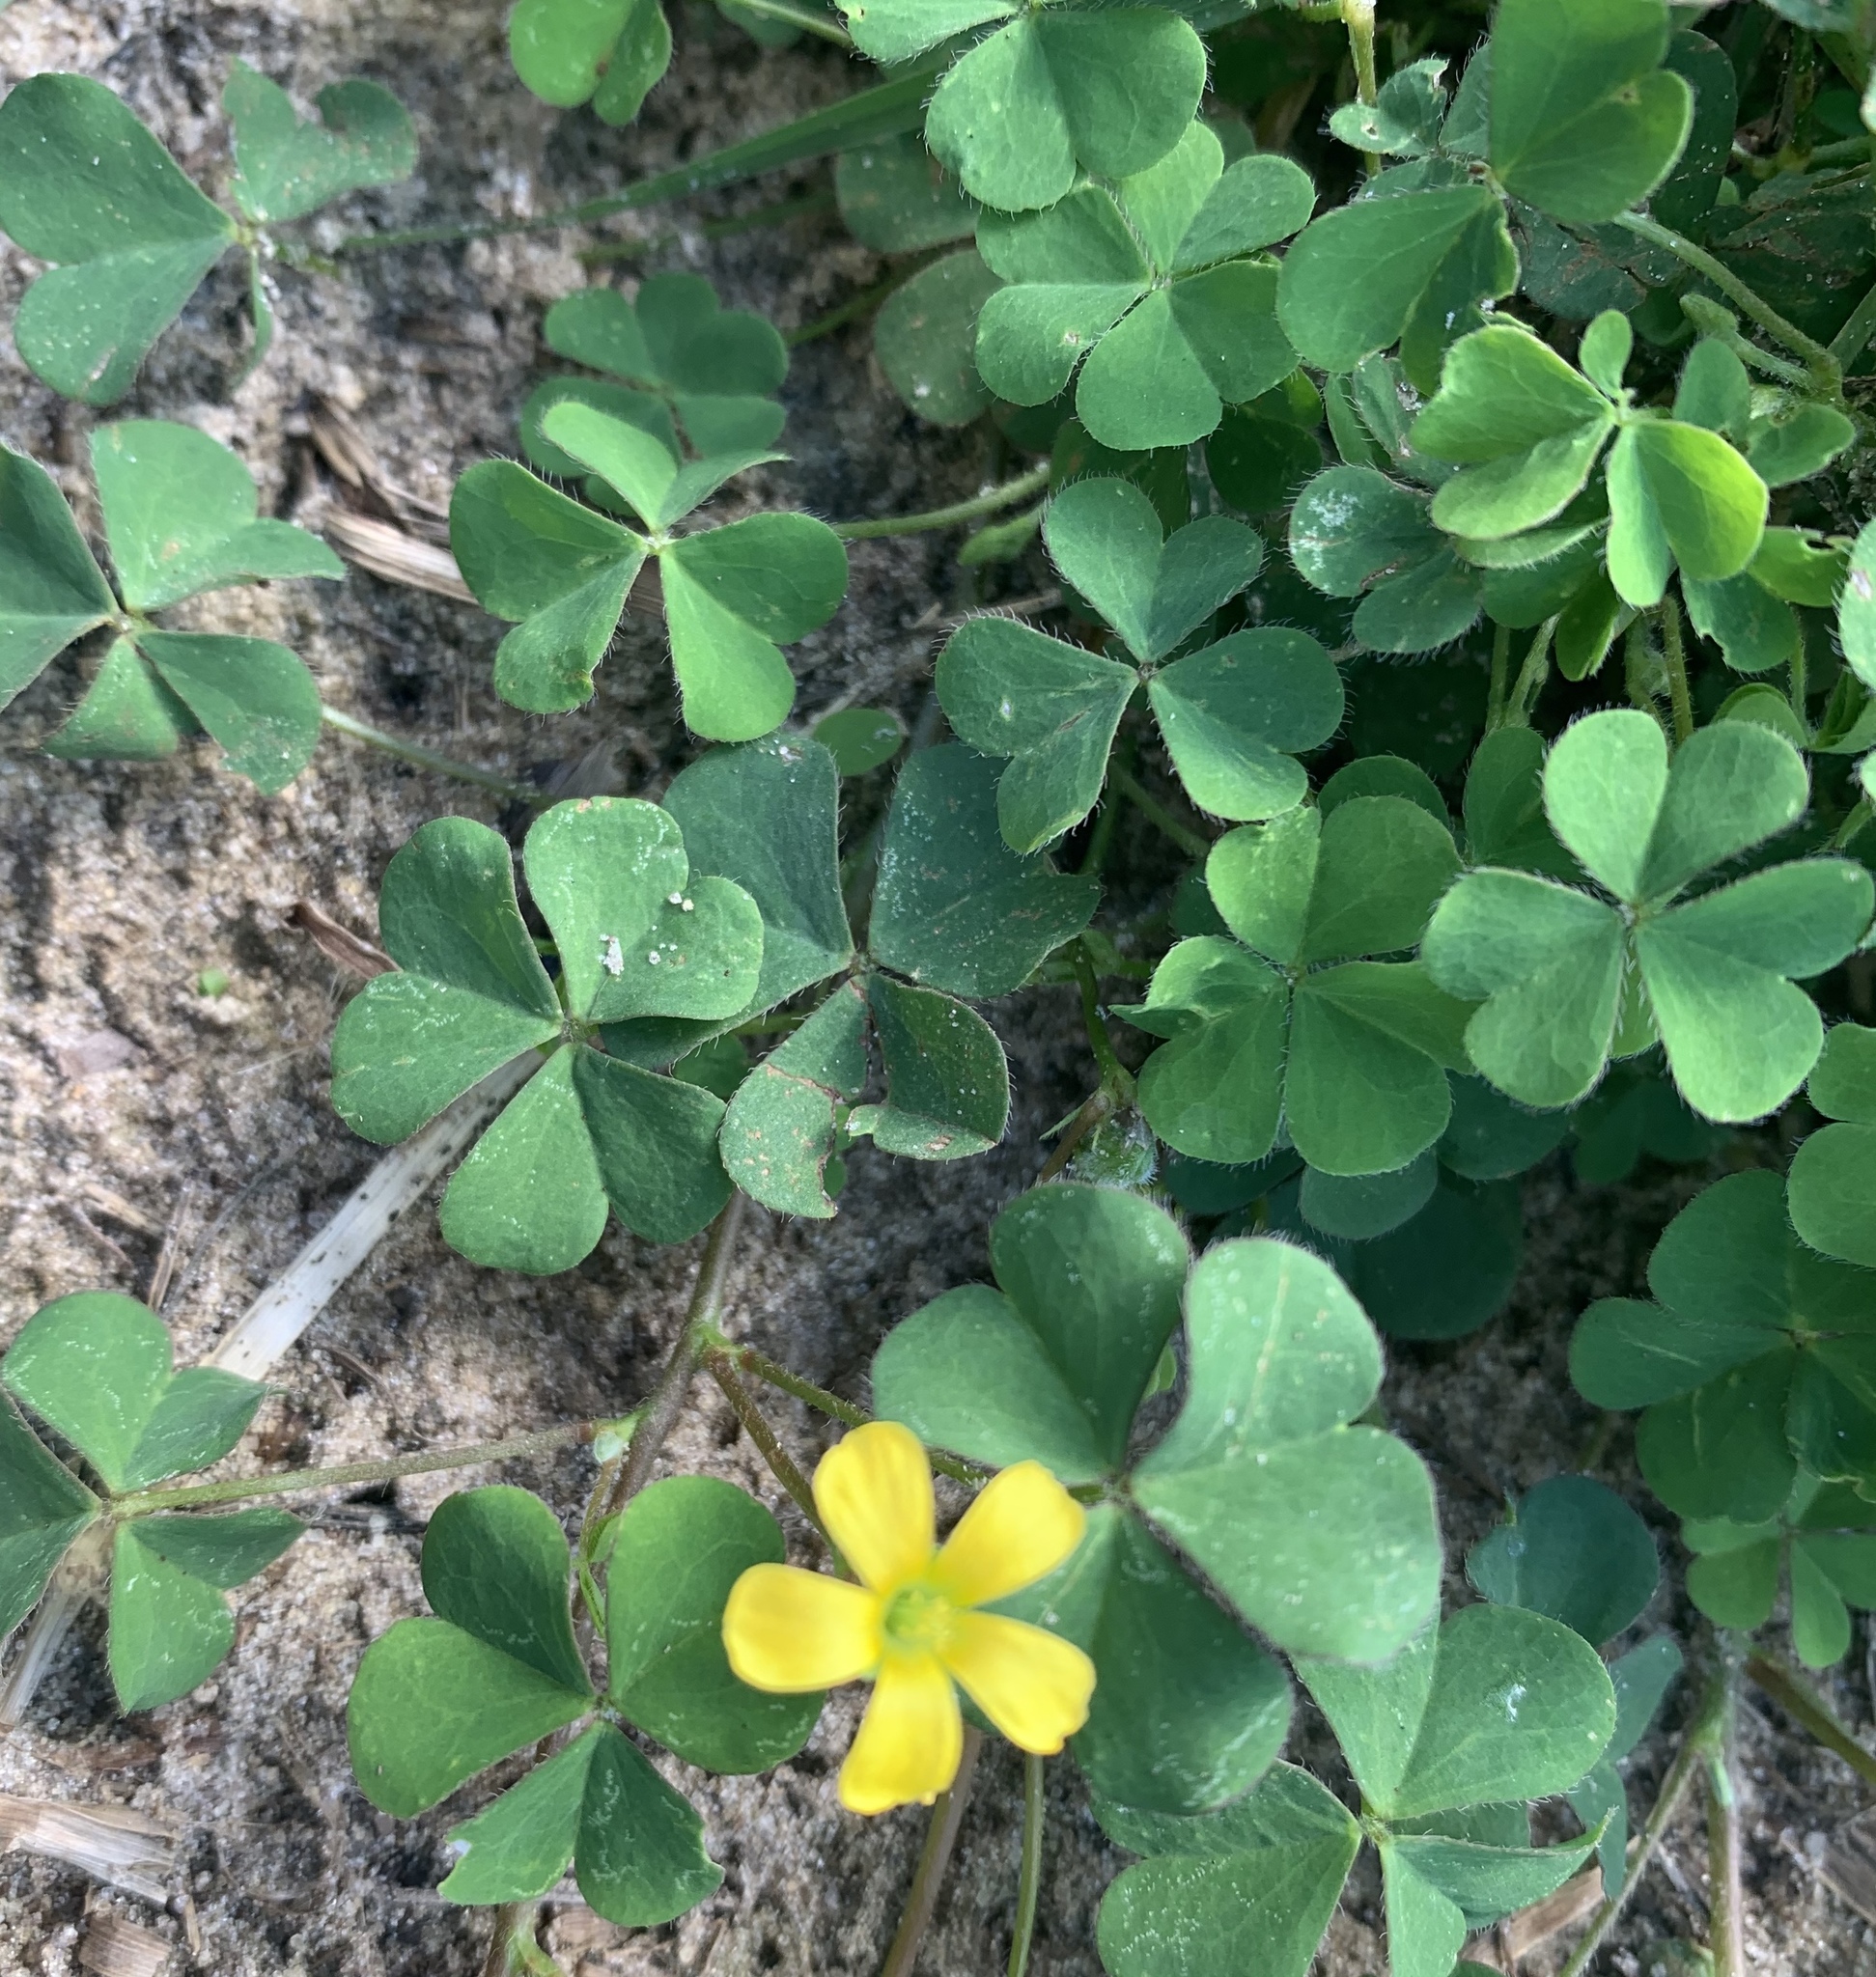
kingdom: Plantae
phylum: Tracheophyta
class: Magnoliopsida
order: Oxalidales
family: Oxalidaceae
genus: Oxalis
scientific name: Oxalis corniculata
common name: Procumbent yellow-sorrel
